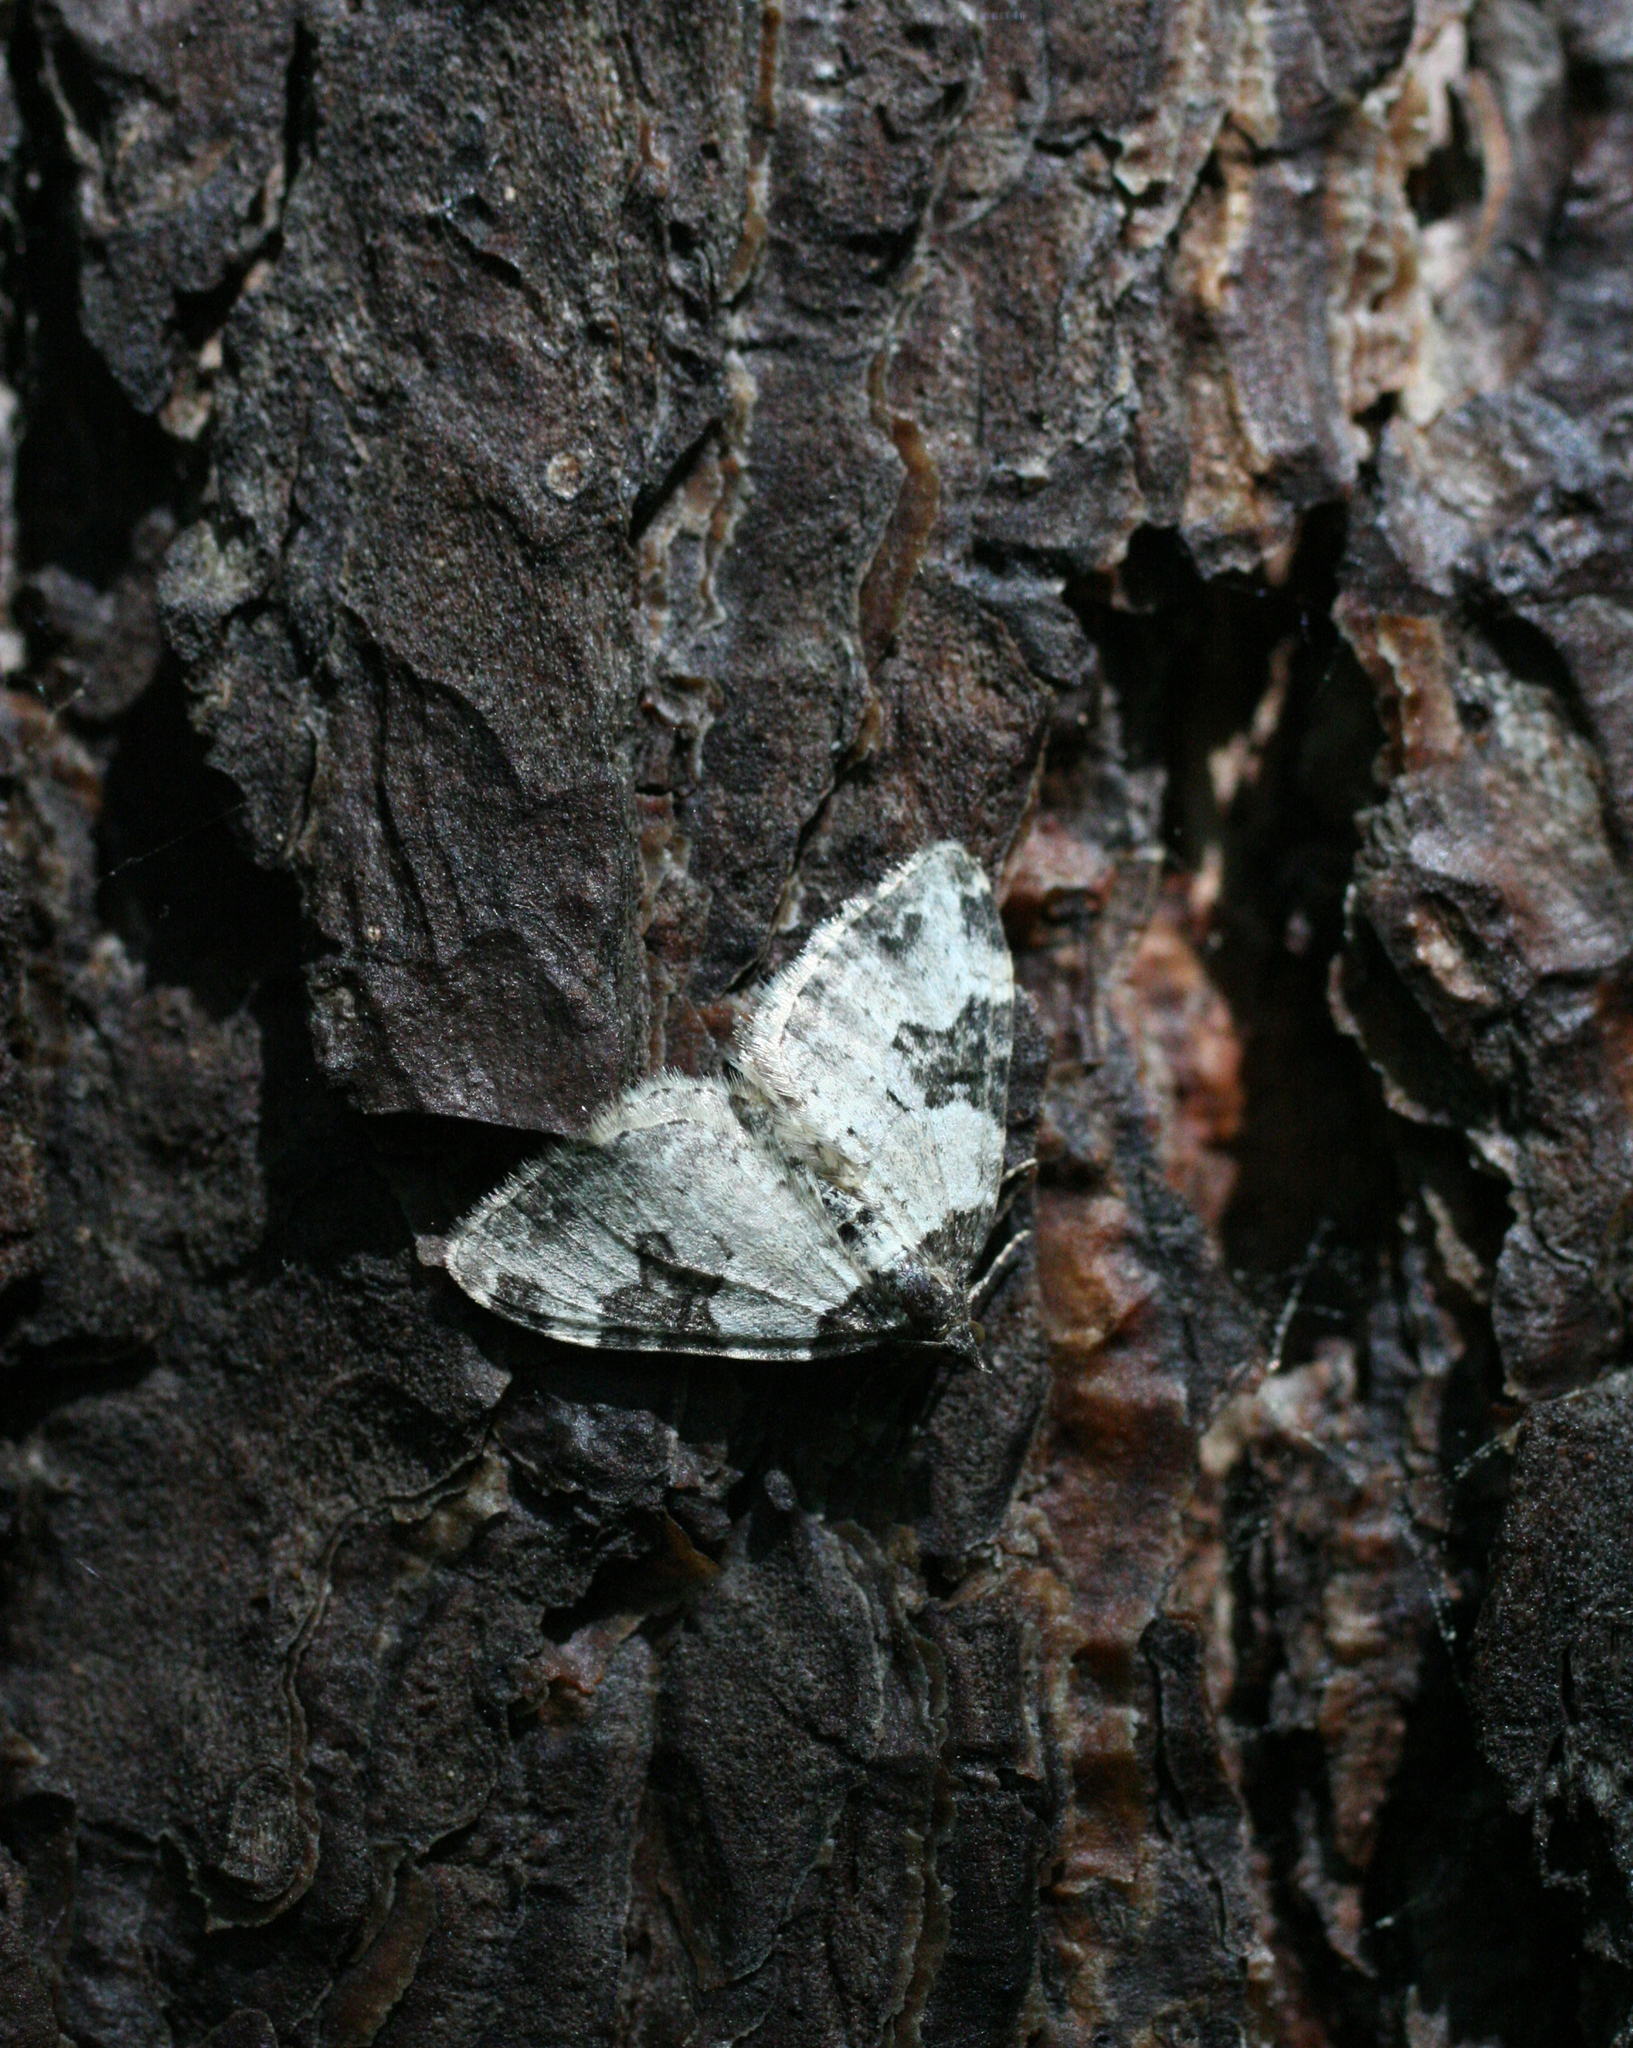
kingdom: Animalia
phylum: Arthropoda
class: Insecta
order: Lepidoptera
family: Geometridae
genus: Xanthorhoe
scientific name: Xanthorhoe fluctuata
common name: Garden carpet
